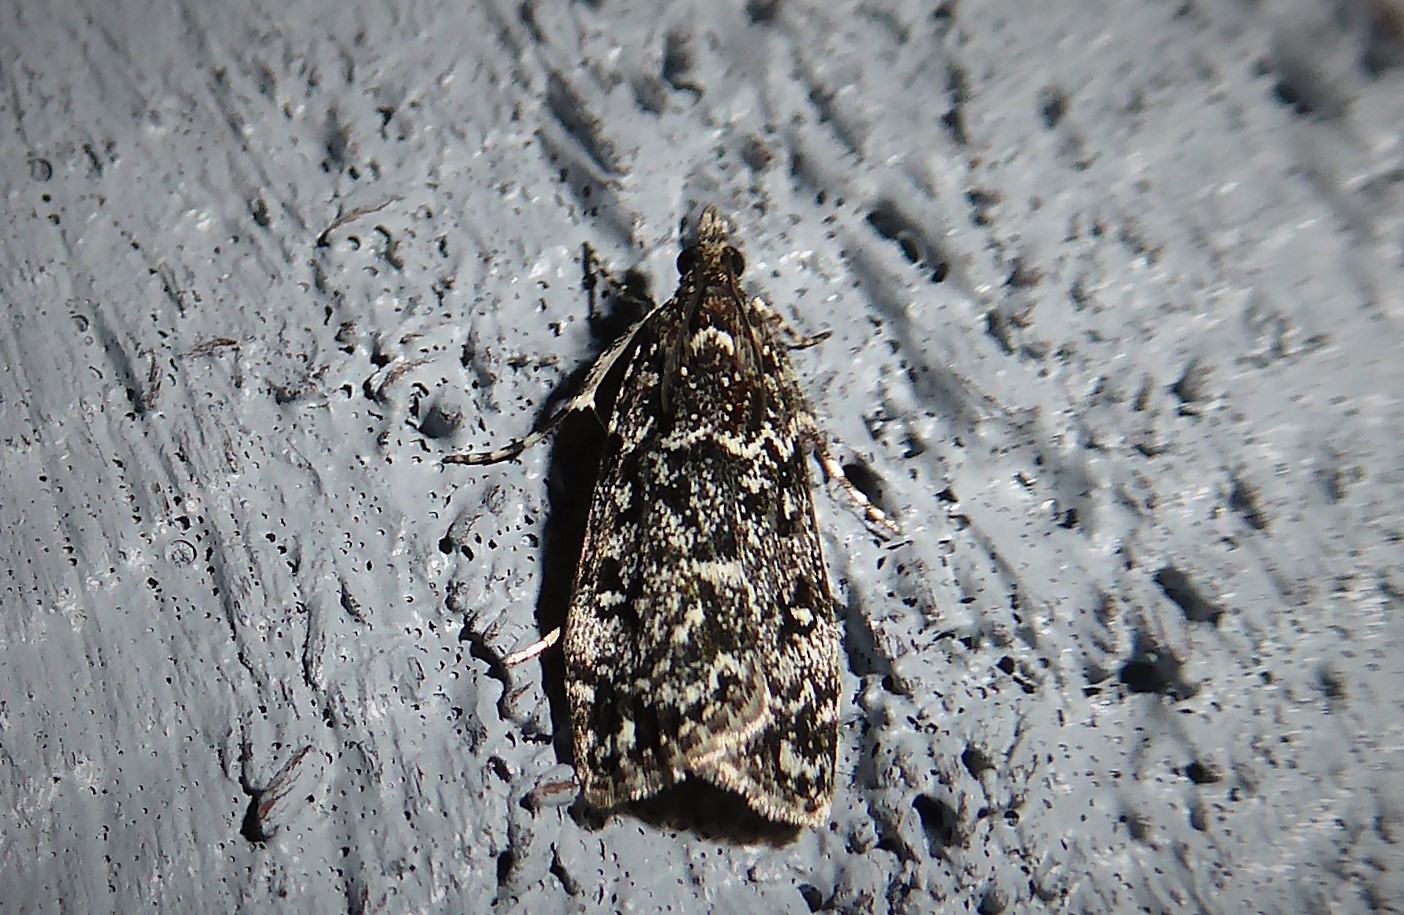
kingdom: Animalia
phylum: Arthropoda
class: Insecta
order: Lepidoptera
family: Crambidae
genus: Eudonia
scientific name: Eudonia philerga
